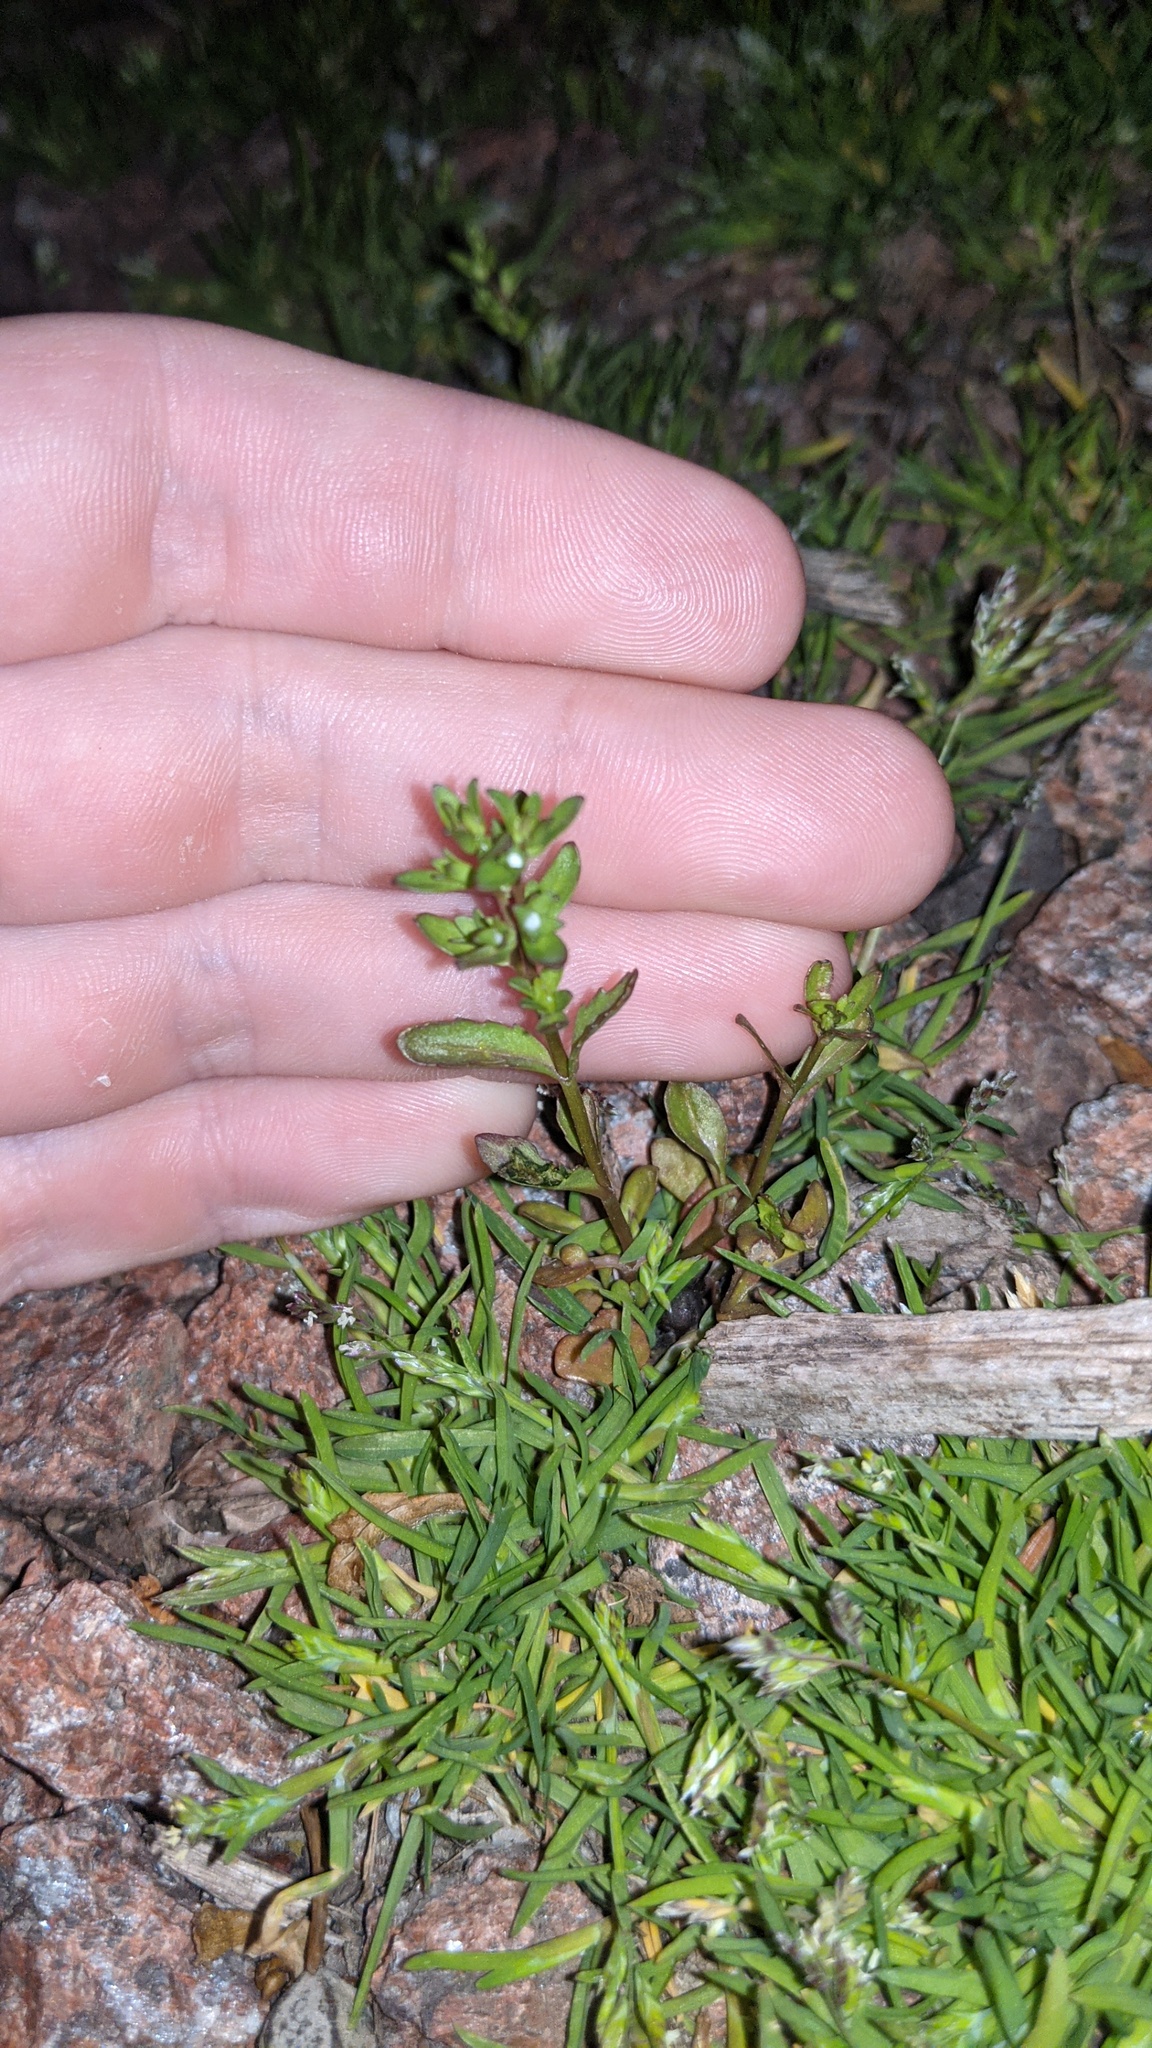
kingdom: Plantae
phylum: Tracheophyta
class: Magnoliopsida
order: Lamiales
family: Plantaginaceae
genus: Veronica
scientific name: Veronica peregrina
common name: Neckweed
